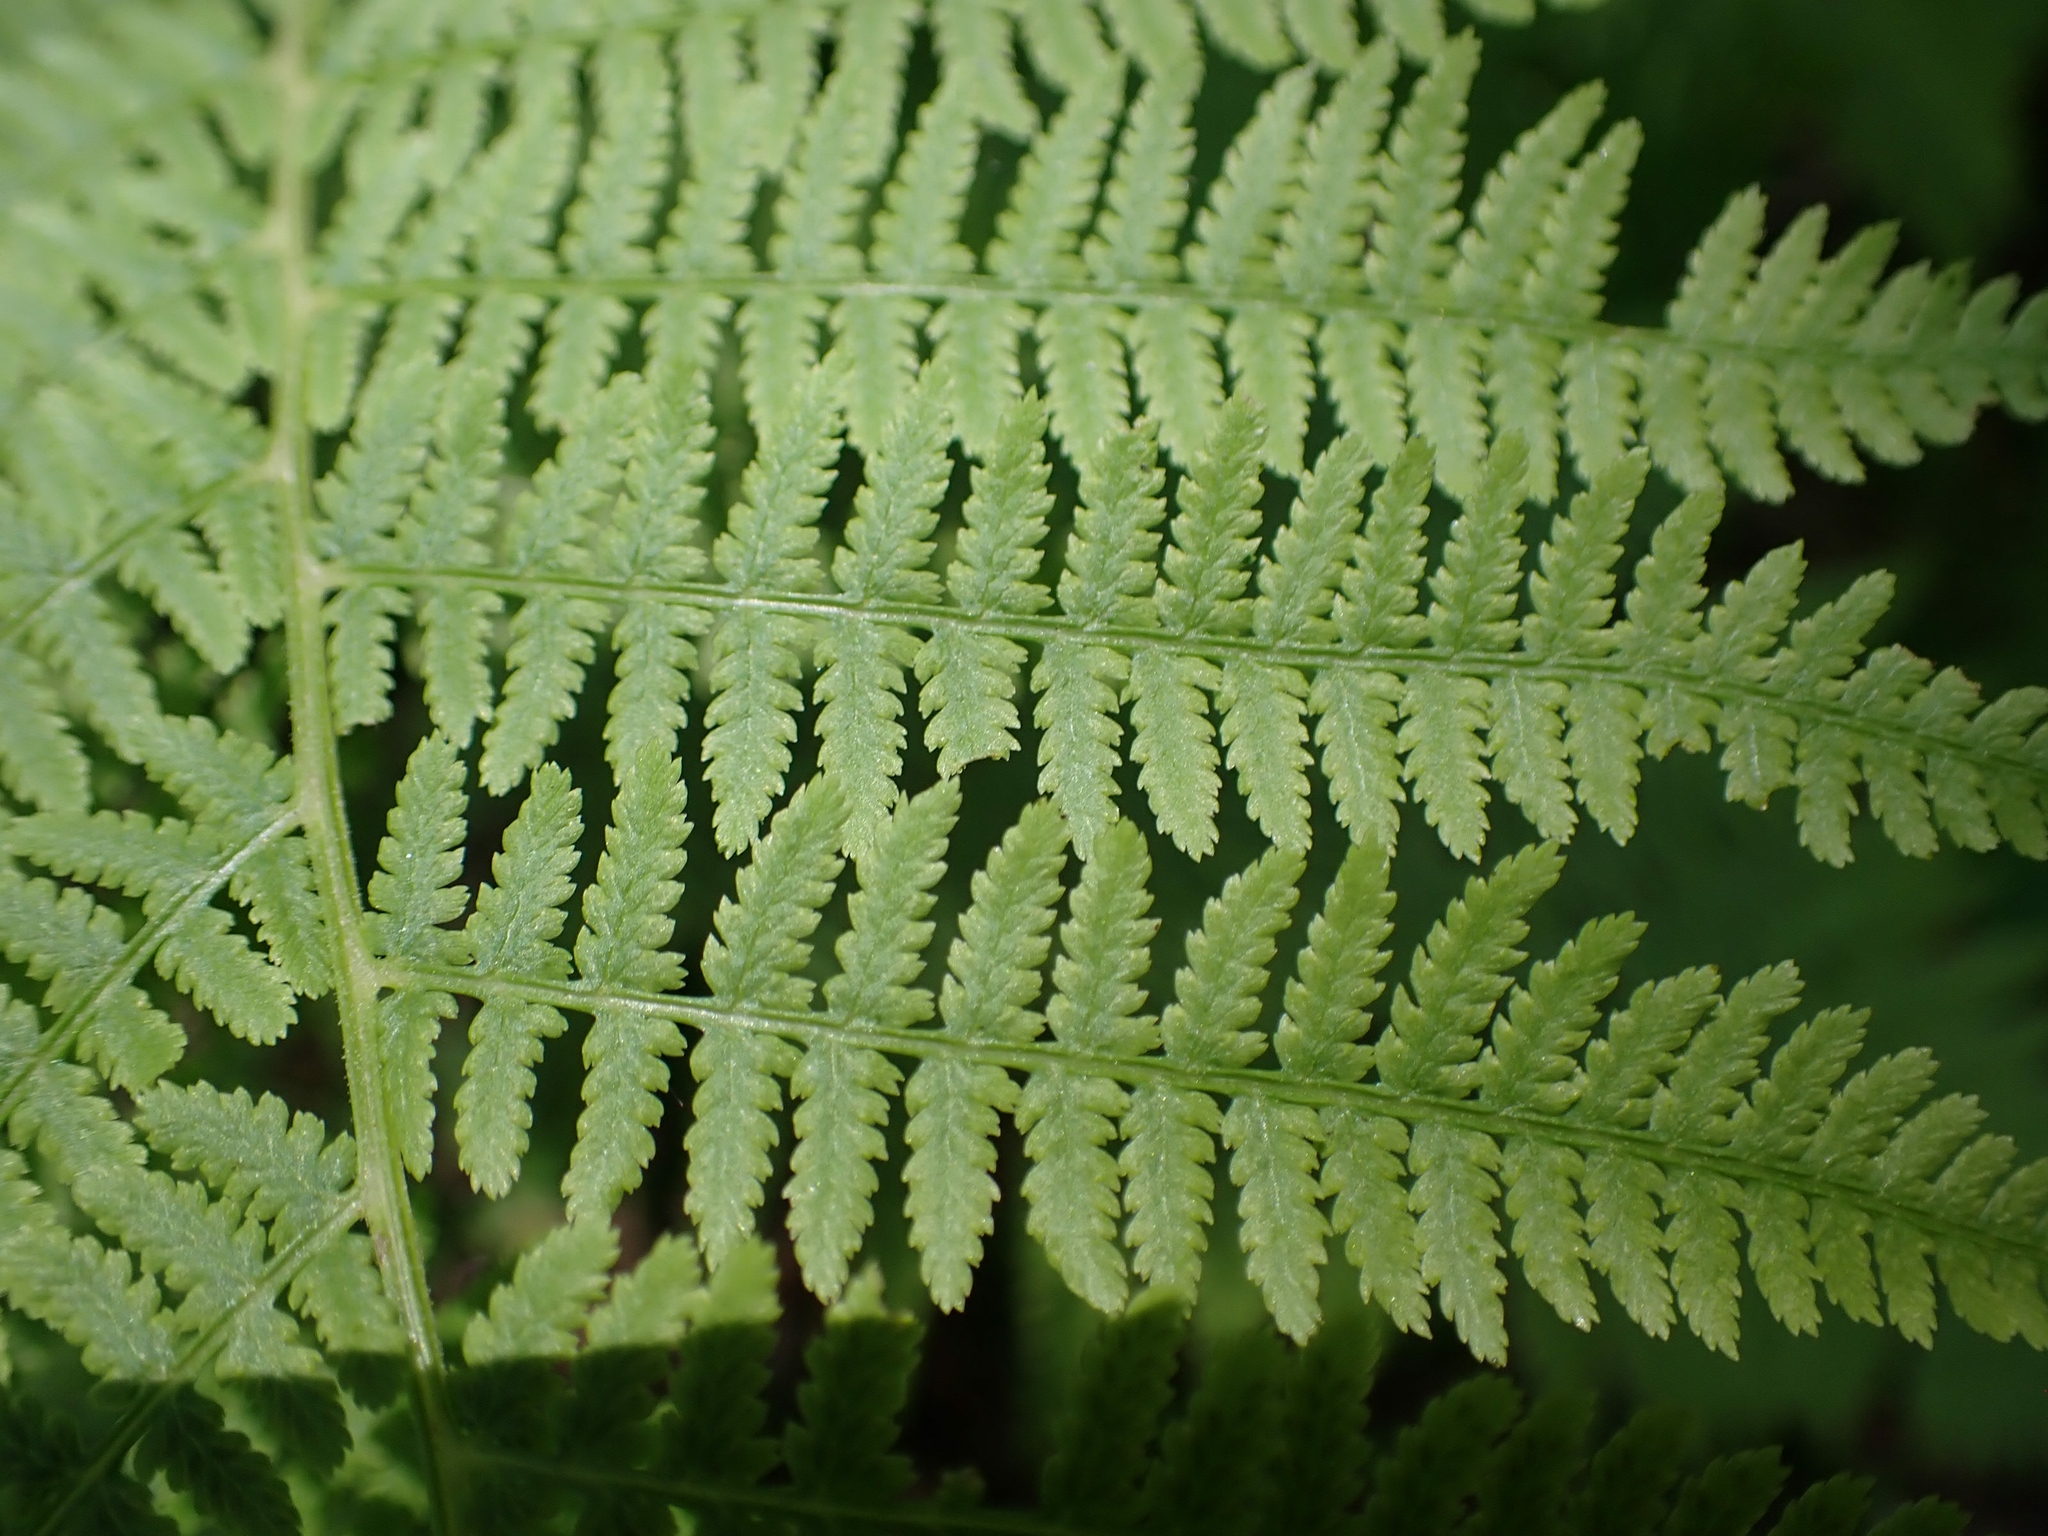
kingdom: Plantae
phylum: Tracheophyta
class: Polypodiopsida
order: Polypodiales
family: Athyriaceae
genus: Athyrium
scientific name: Athyrium angustum
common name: Northern lady fern
